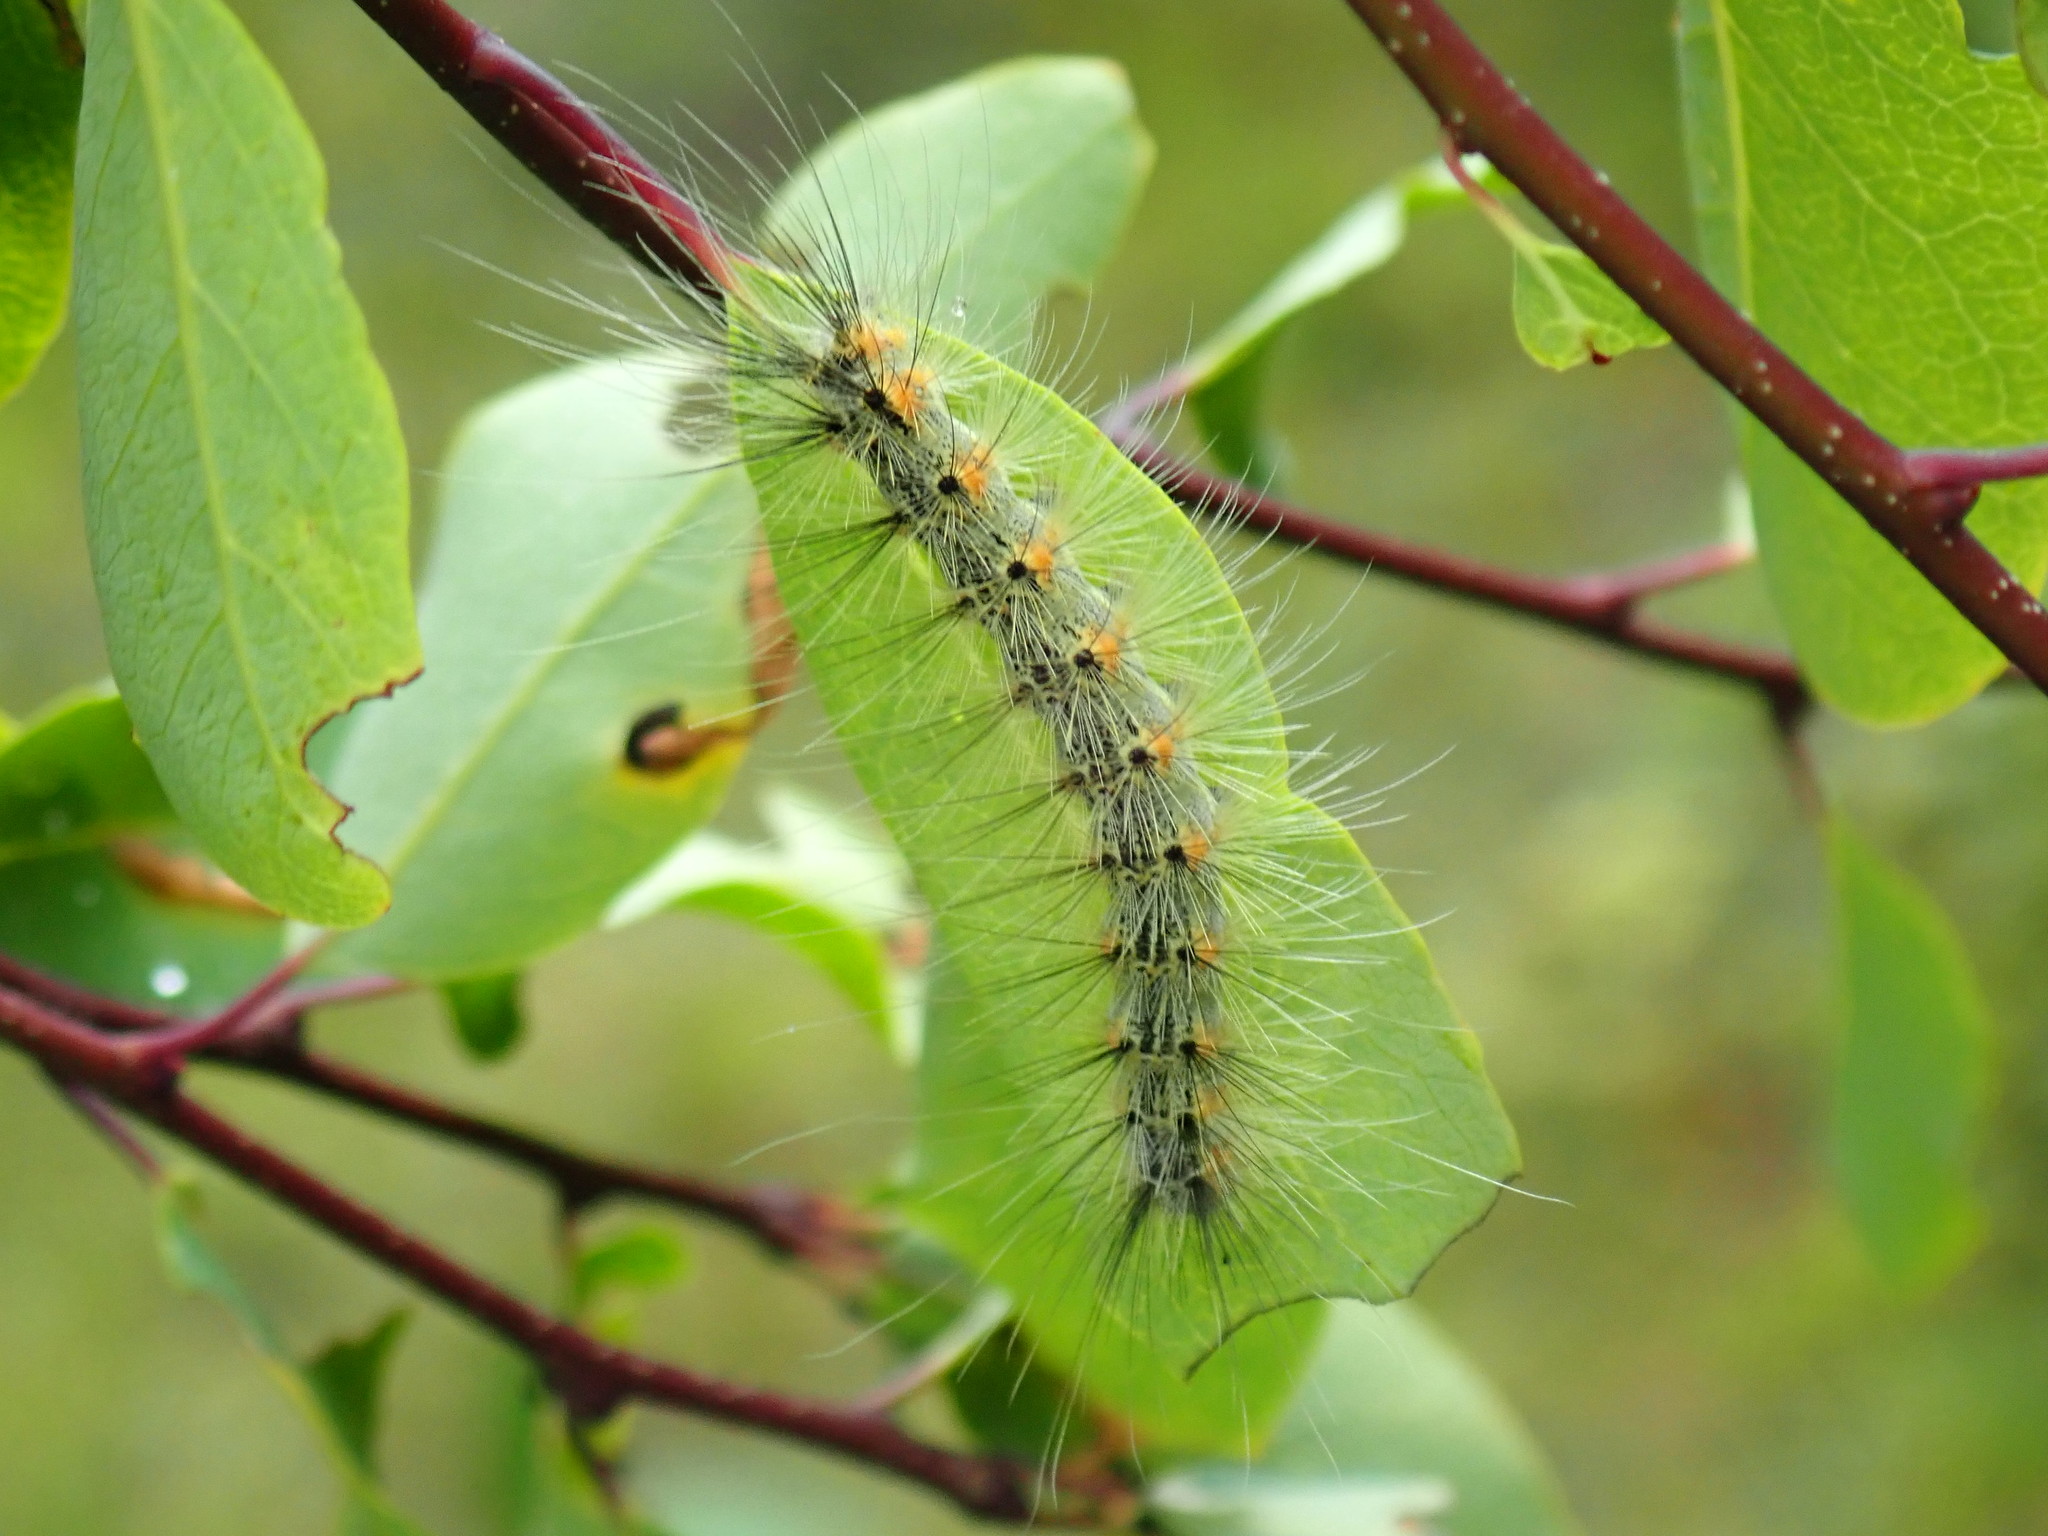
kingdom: Animalia
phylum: Arthropoda
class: Insecta
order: Lepidoptera
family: Erebidae
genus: Hyphantria
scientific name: Hyphantria cunea
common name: American white moth
